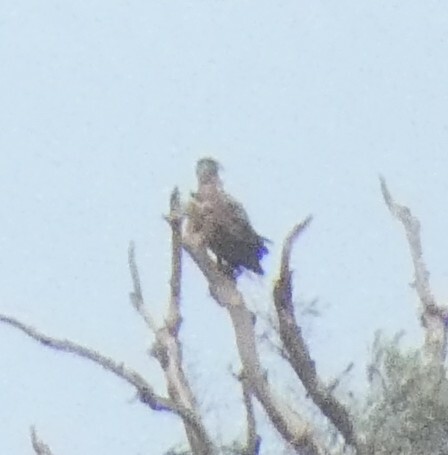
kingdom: Animalia
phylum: Chordata
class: Aves
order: Accipitriformes
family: Accipitridae
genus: Haliaeetus
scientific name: Haliaeetus albicilla
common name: White-tailed eagle
